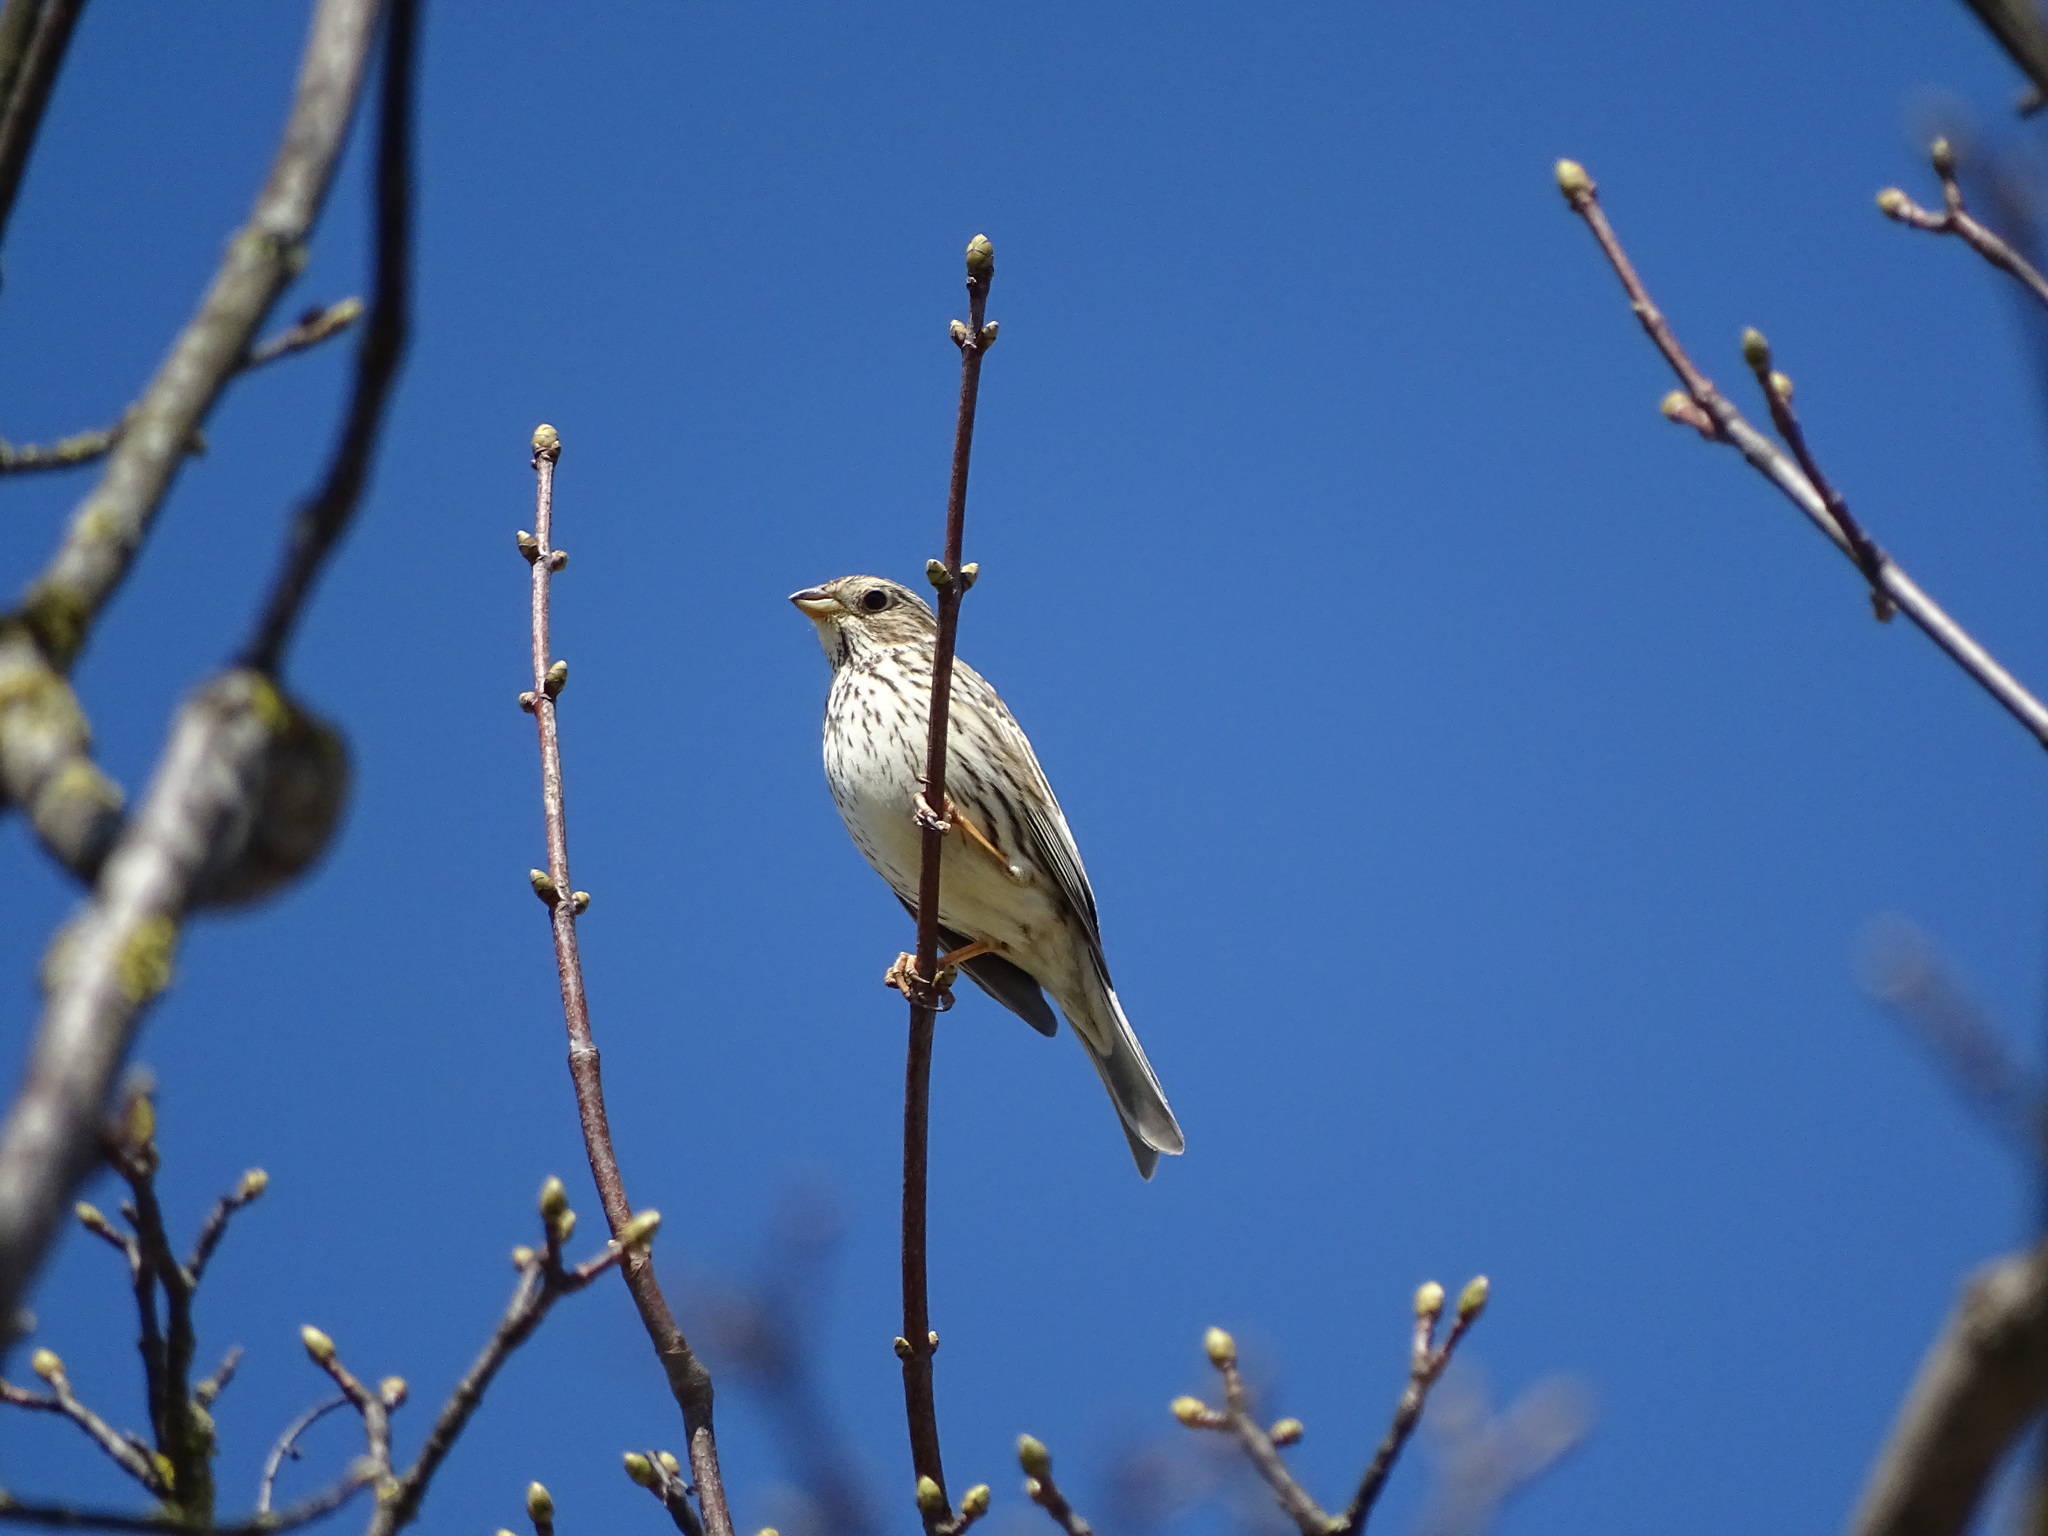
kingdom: Animalia
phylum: Chordata
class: Aves
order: Passeriformes
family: Emberizidae
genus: Emberiza
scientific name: Emberiza calandra
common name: Corn bunting
